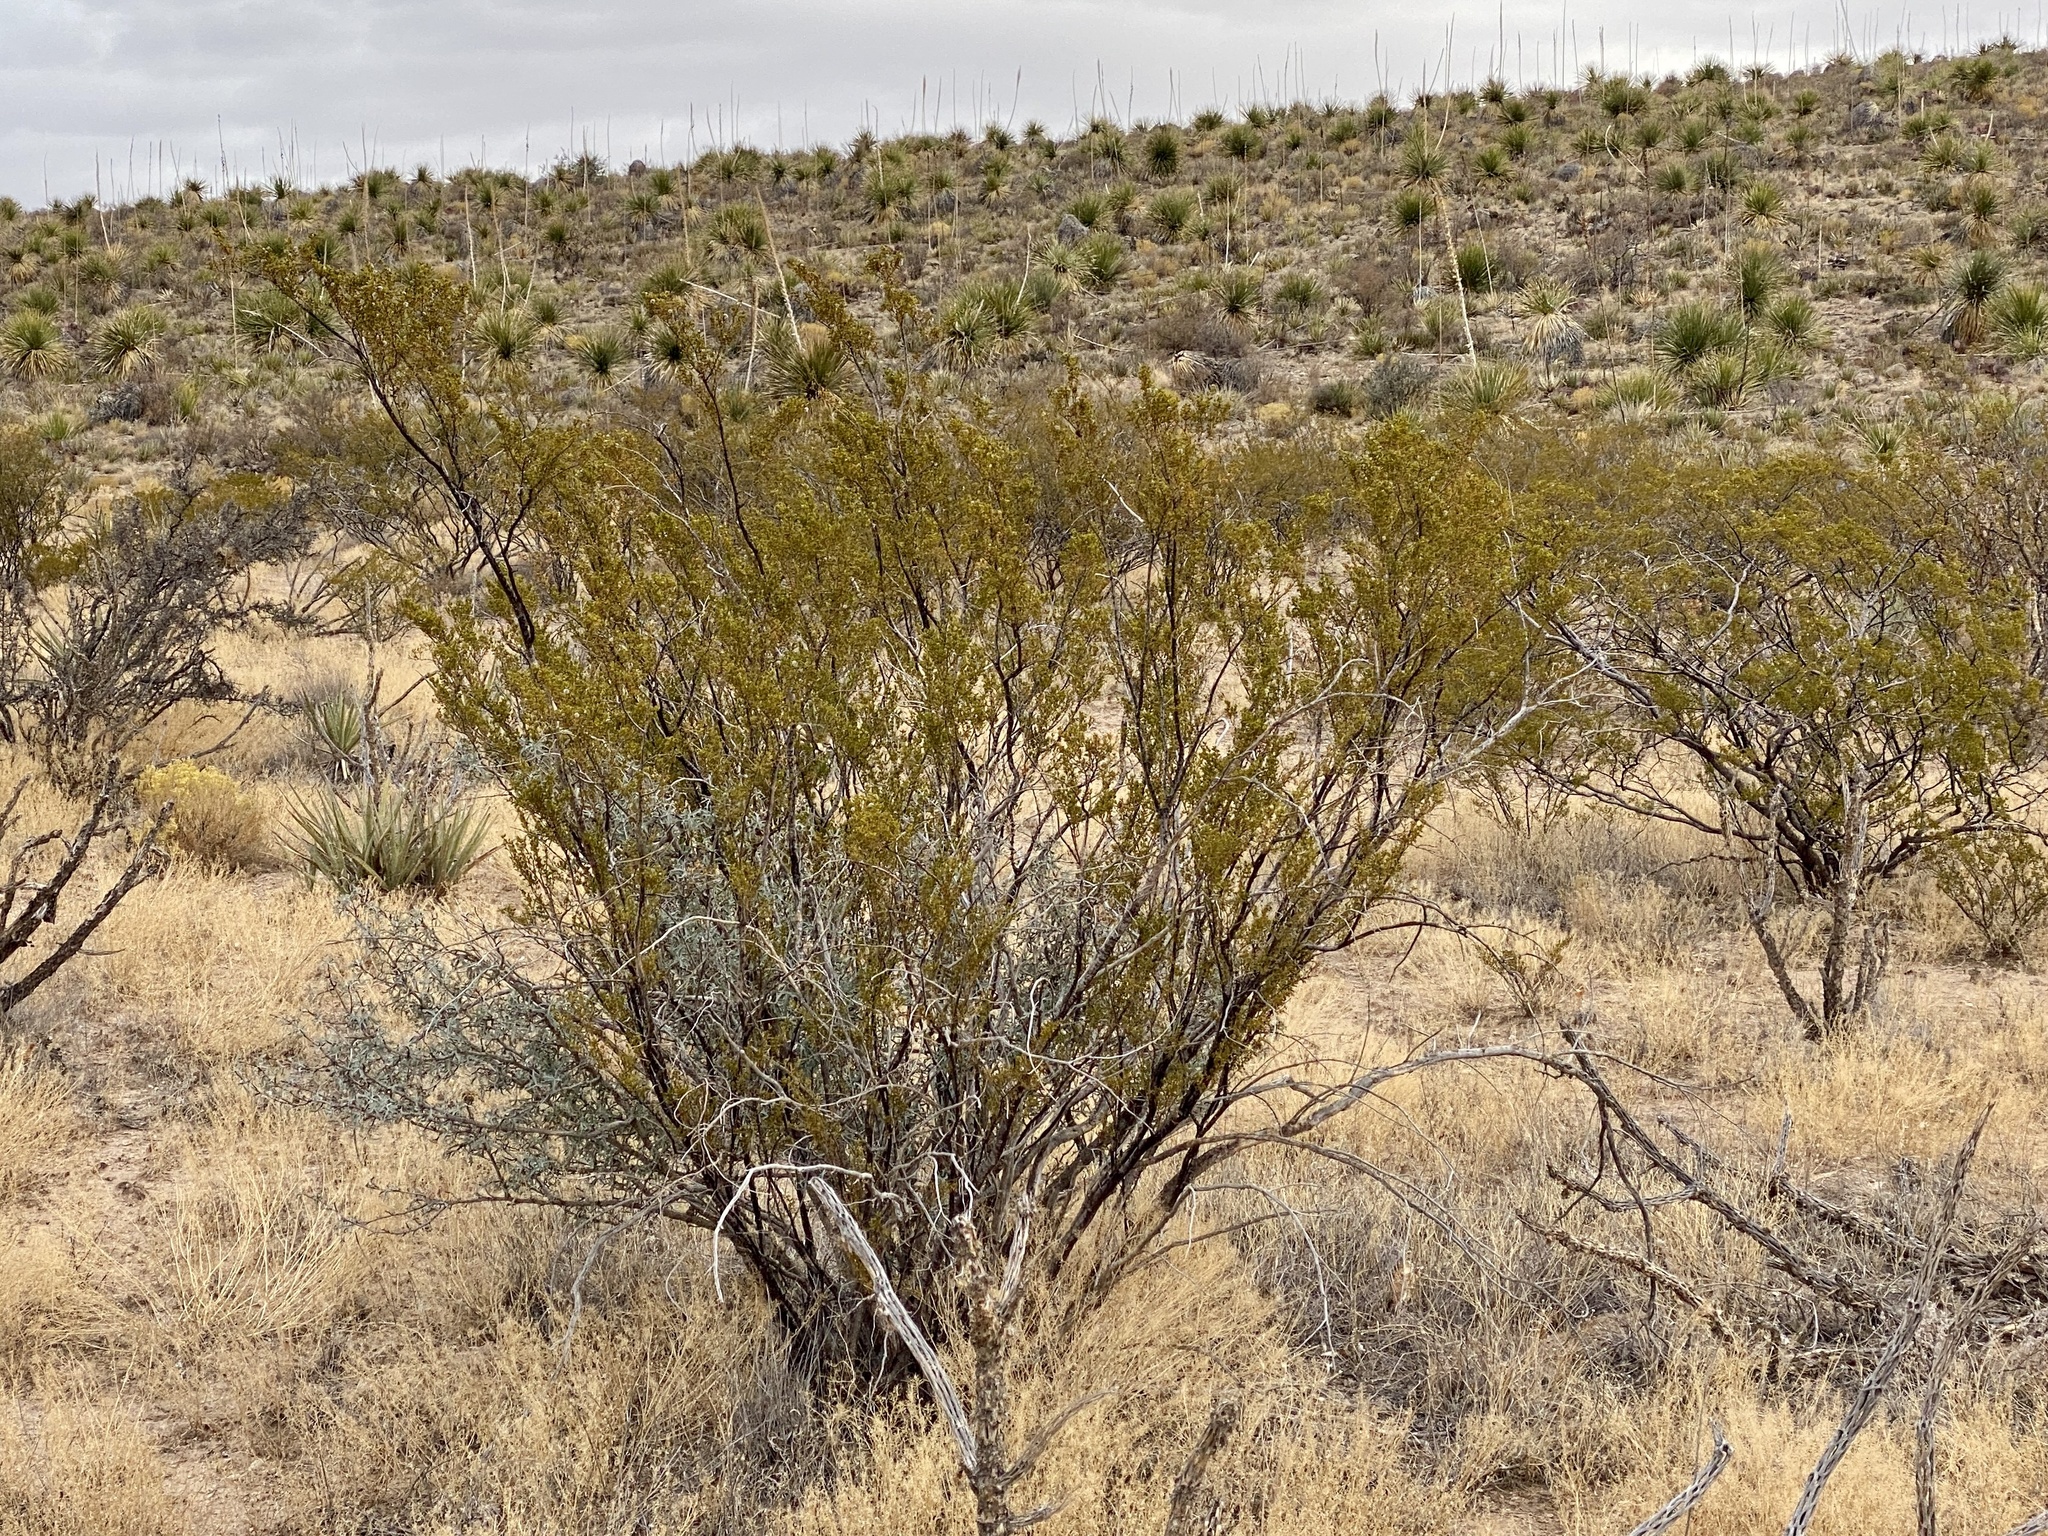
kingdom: Plantae
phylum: Tracheophyta
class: Magnoliopsida
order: Zygophyllales
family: Zygophyllaceae
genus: Larrea
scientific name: Larrea tridentata
